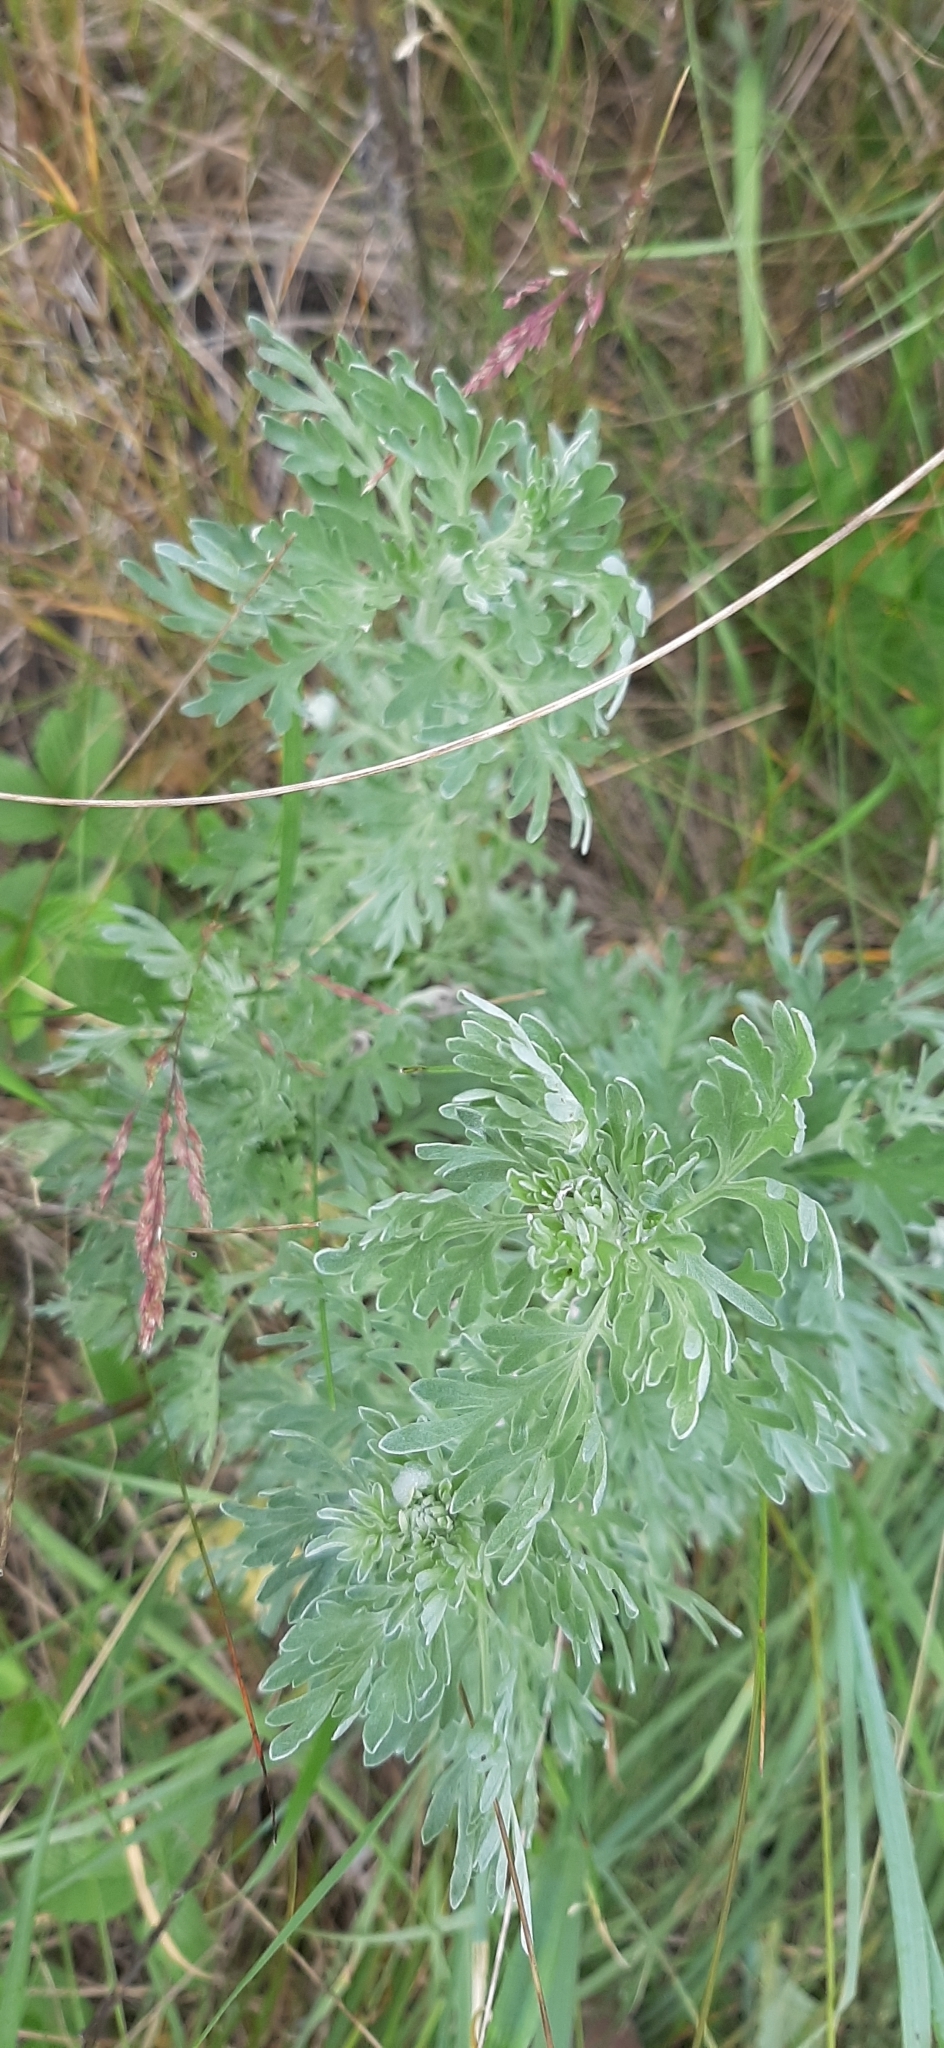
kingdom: Plantae
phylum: Tracheophyta
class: Magnoliopsida
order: Asterales
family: Asteraceae
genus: Artemisia
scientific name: Artemisia absinthium
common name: Wormwood
